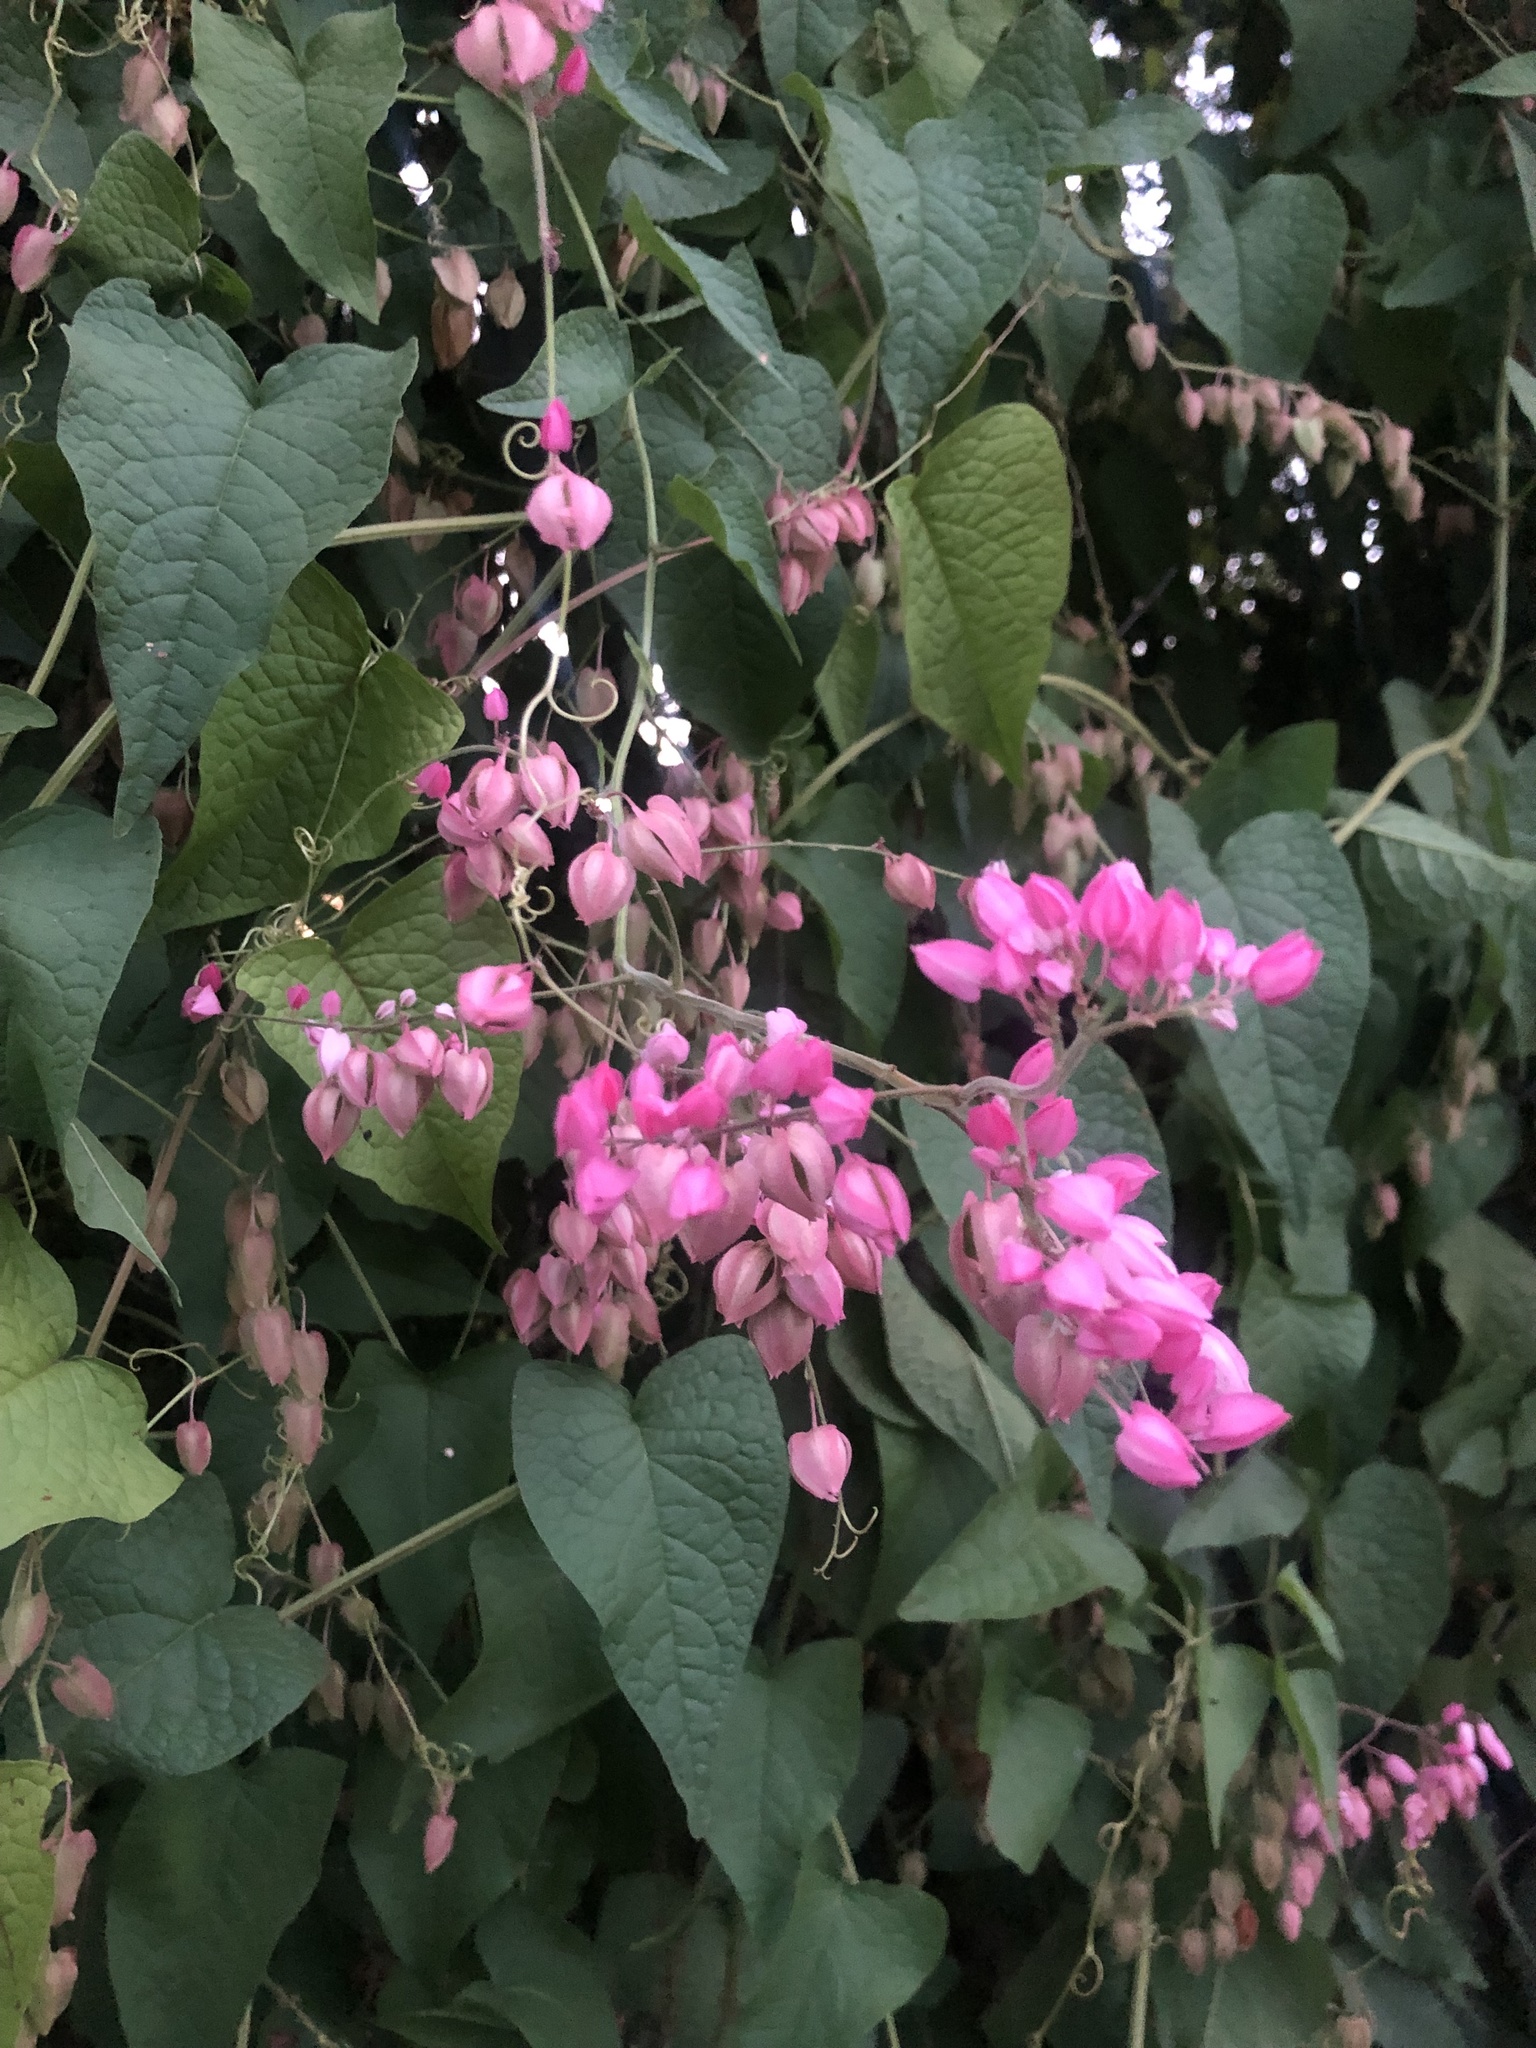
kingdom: Plantae
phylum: Tracheophyta
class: Magnoliopsida
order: Caryophyllales
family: Polygonaceae
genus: Antigonon
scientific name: Antigonon leptopus
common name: Coral vine
